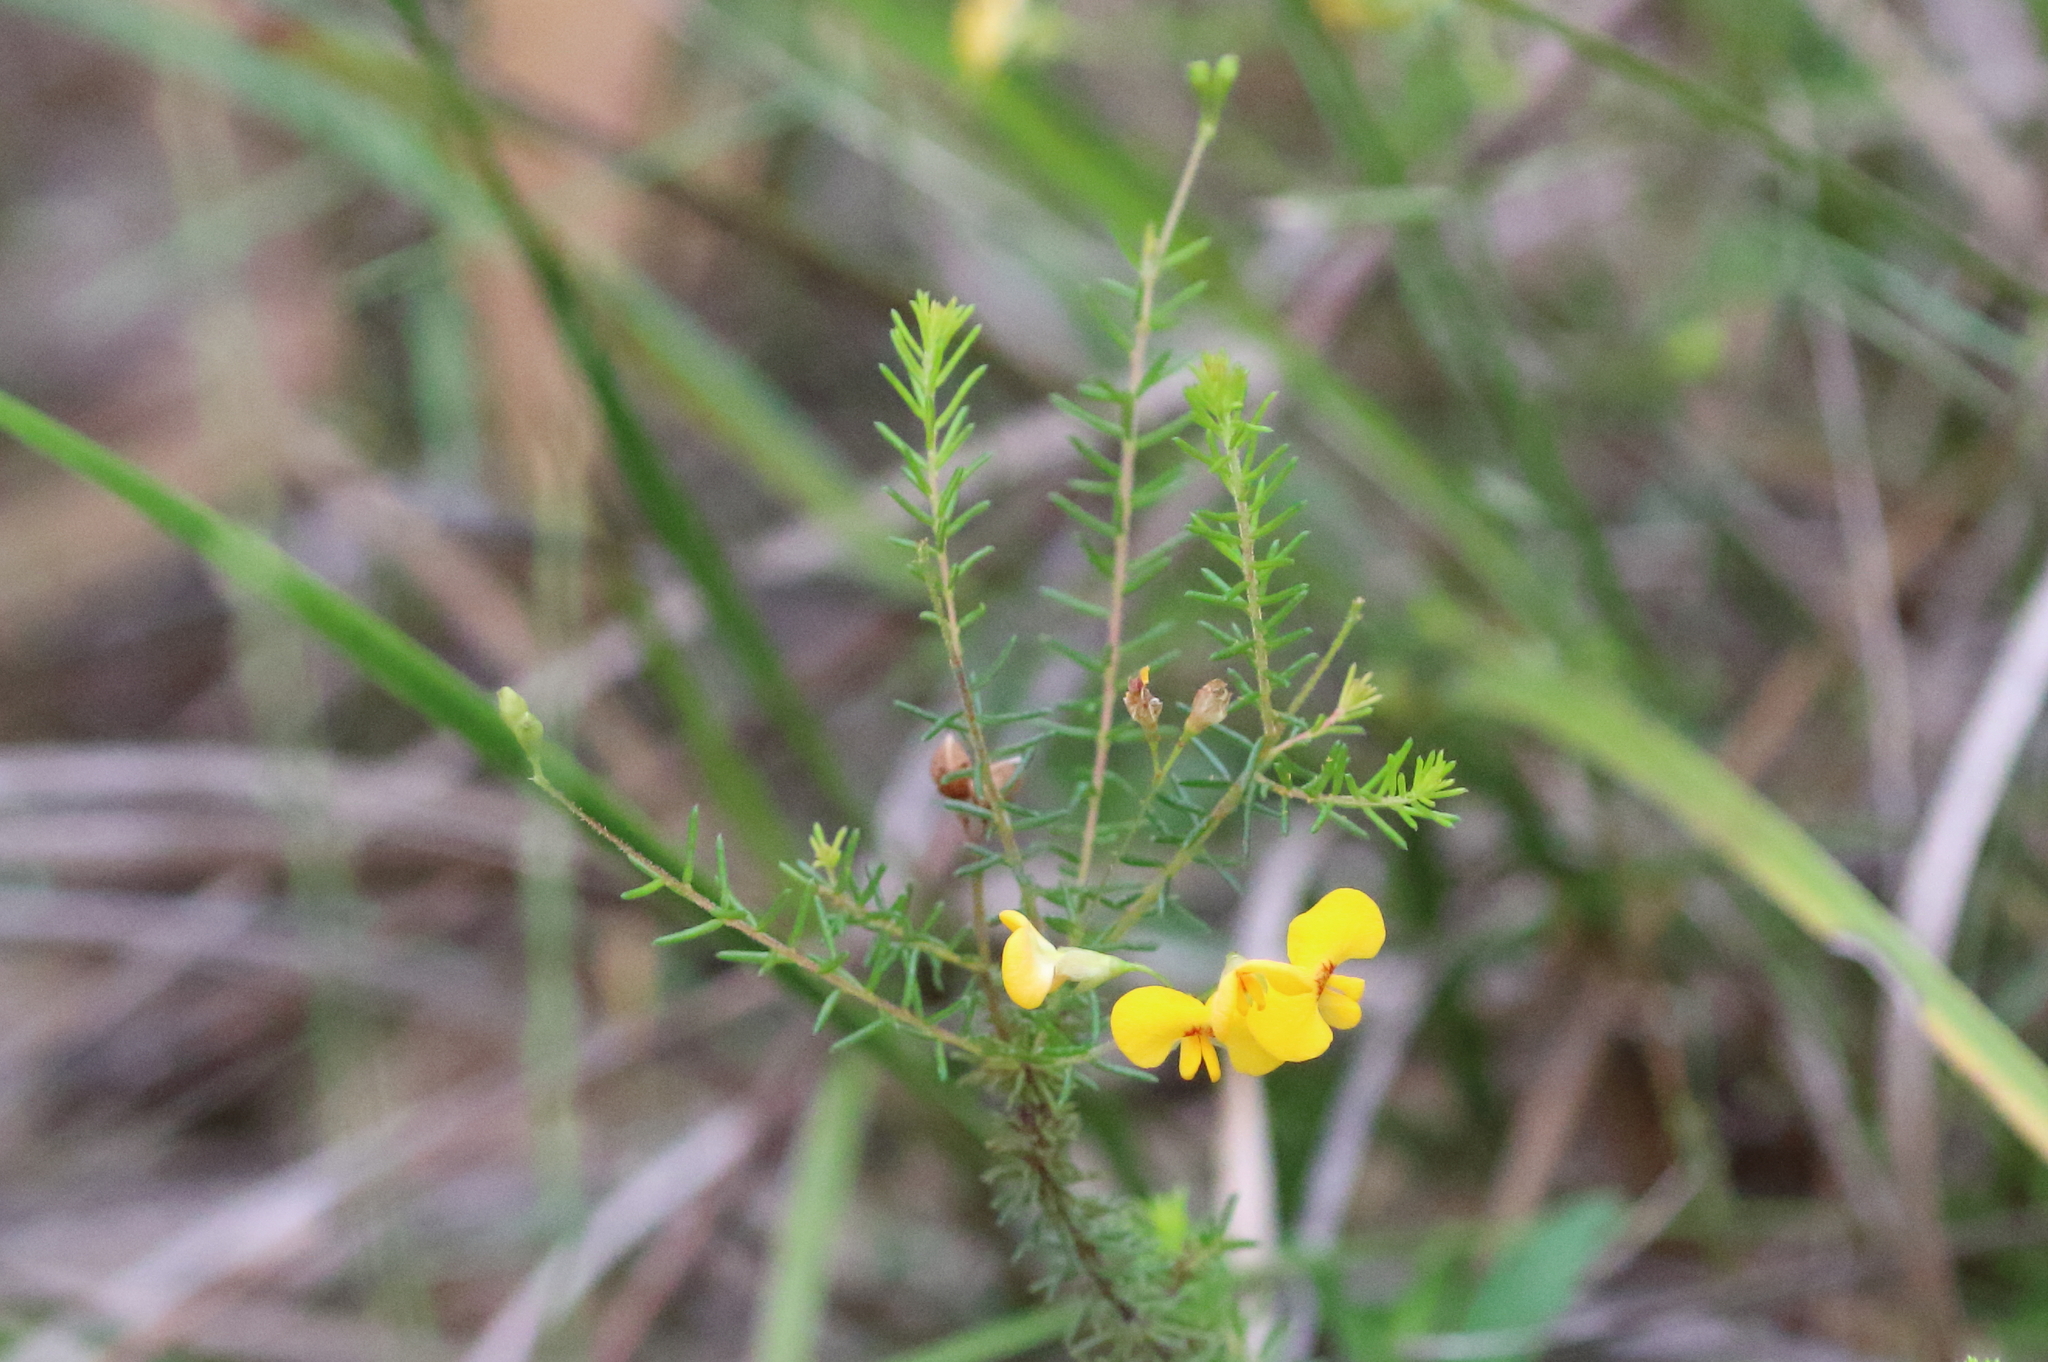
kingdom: Plantae
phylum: Tracheophyta
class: Magnoliopsida
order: Fabales
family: Fabaceae
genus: Dillwynia
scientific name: Dillwynia retorta
